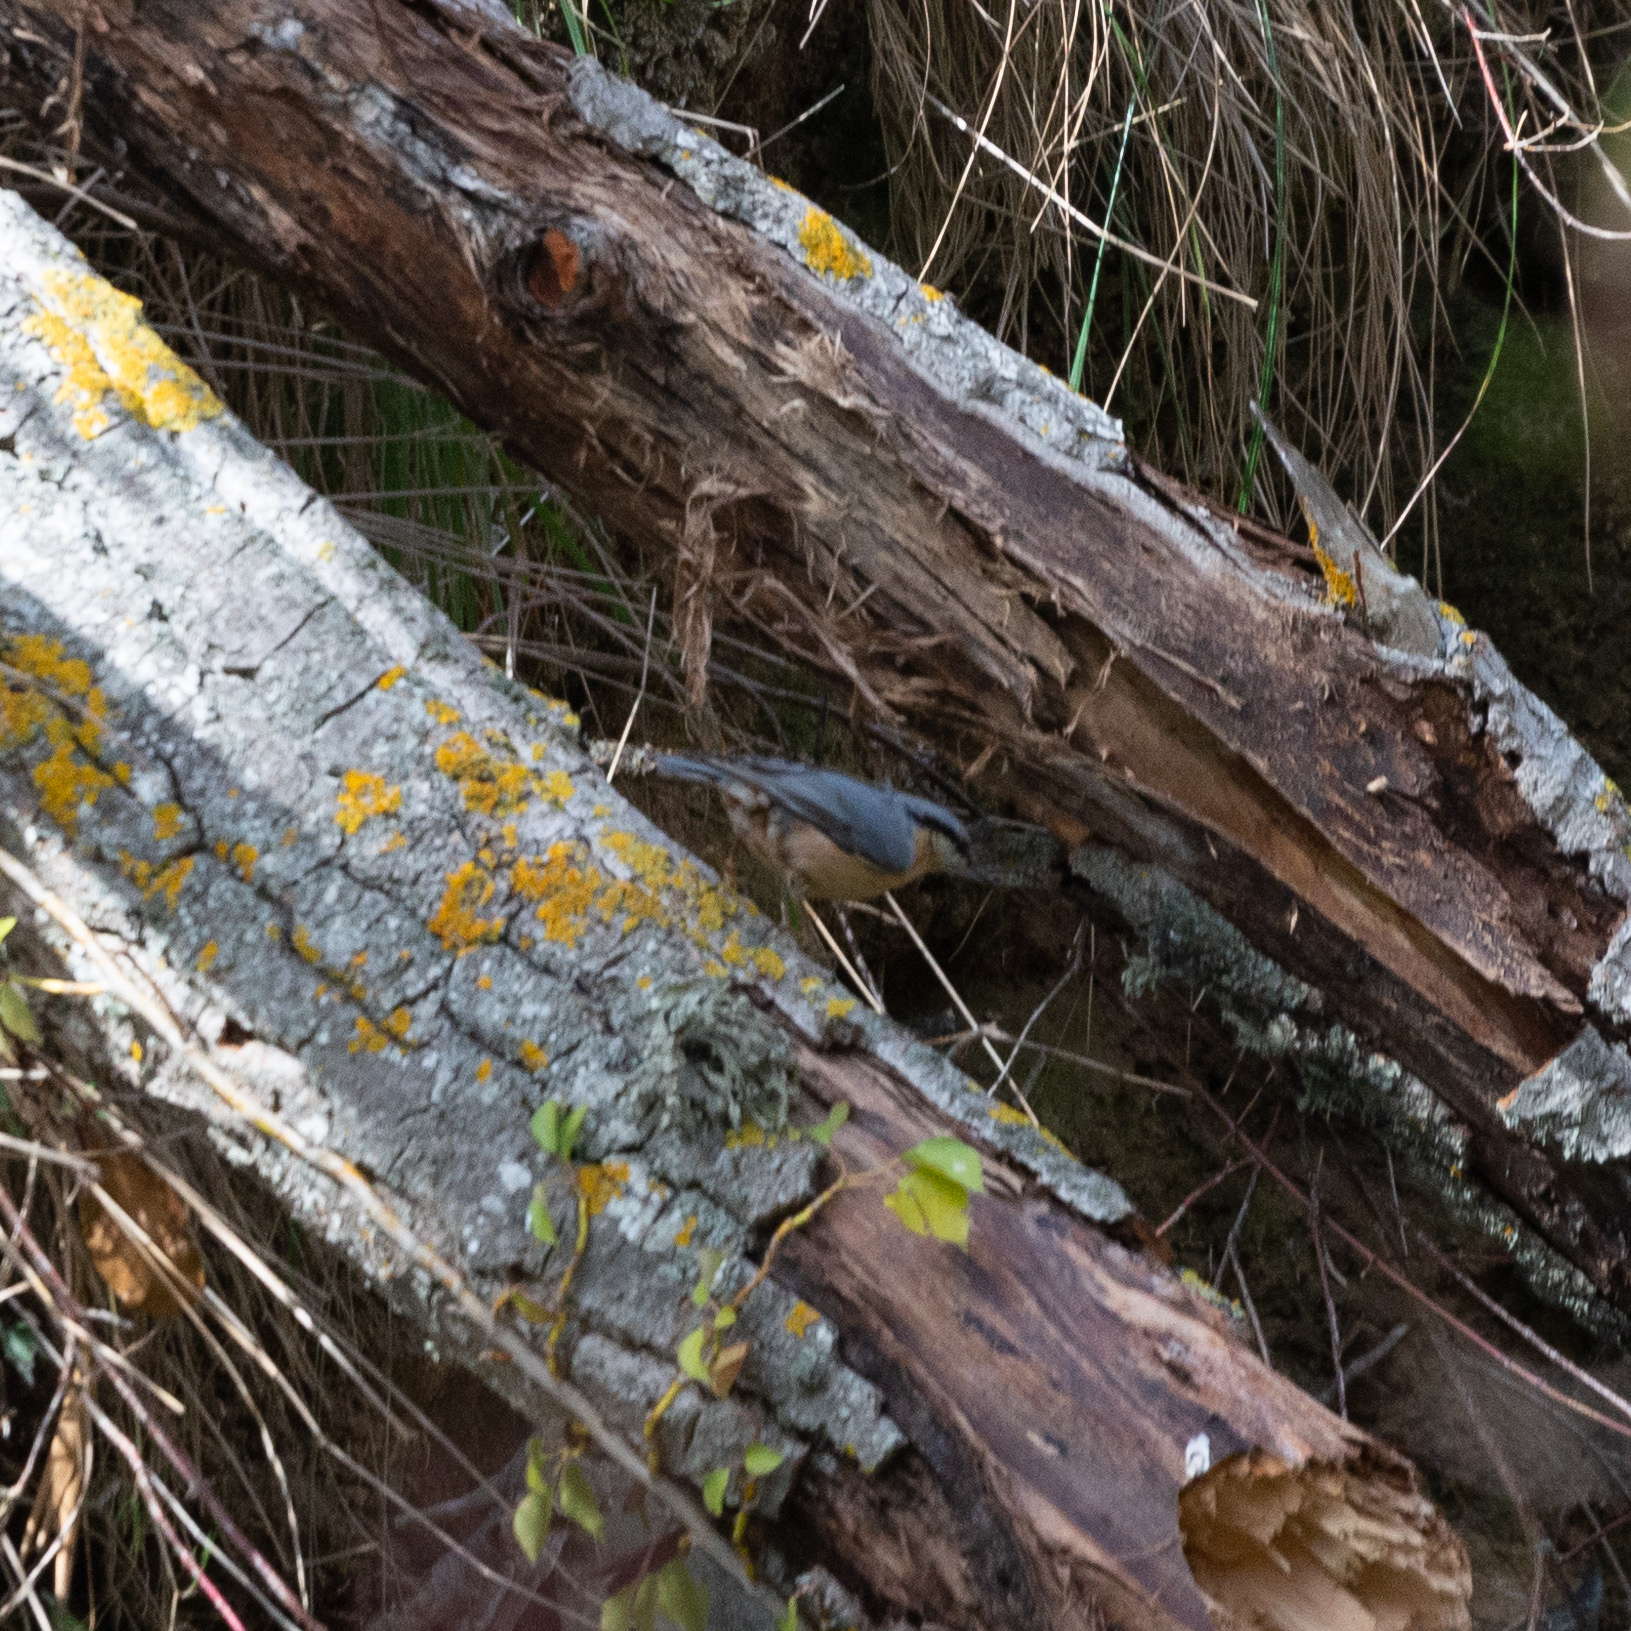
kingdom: Animalia
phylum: Chordata
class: Aves
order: Passeriformes
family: Sittidae
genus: Sitta
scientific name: Sitta europaea
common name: Eurasian nuthatch
